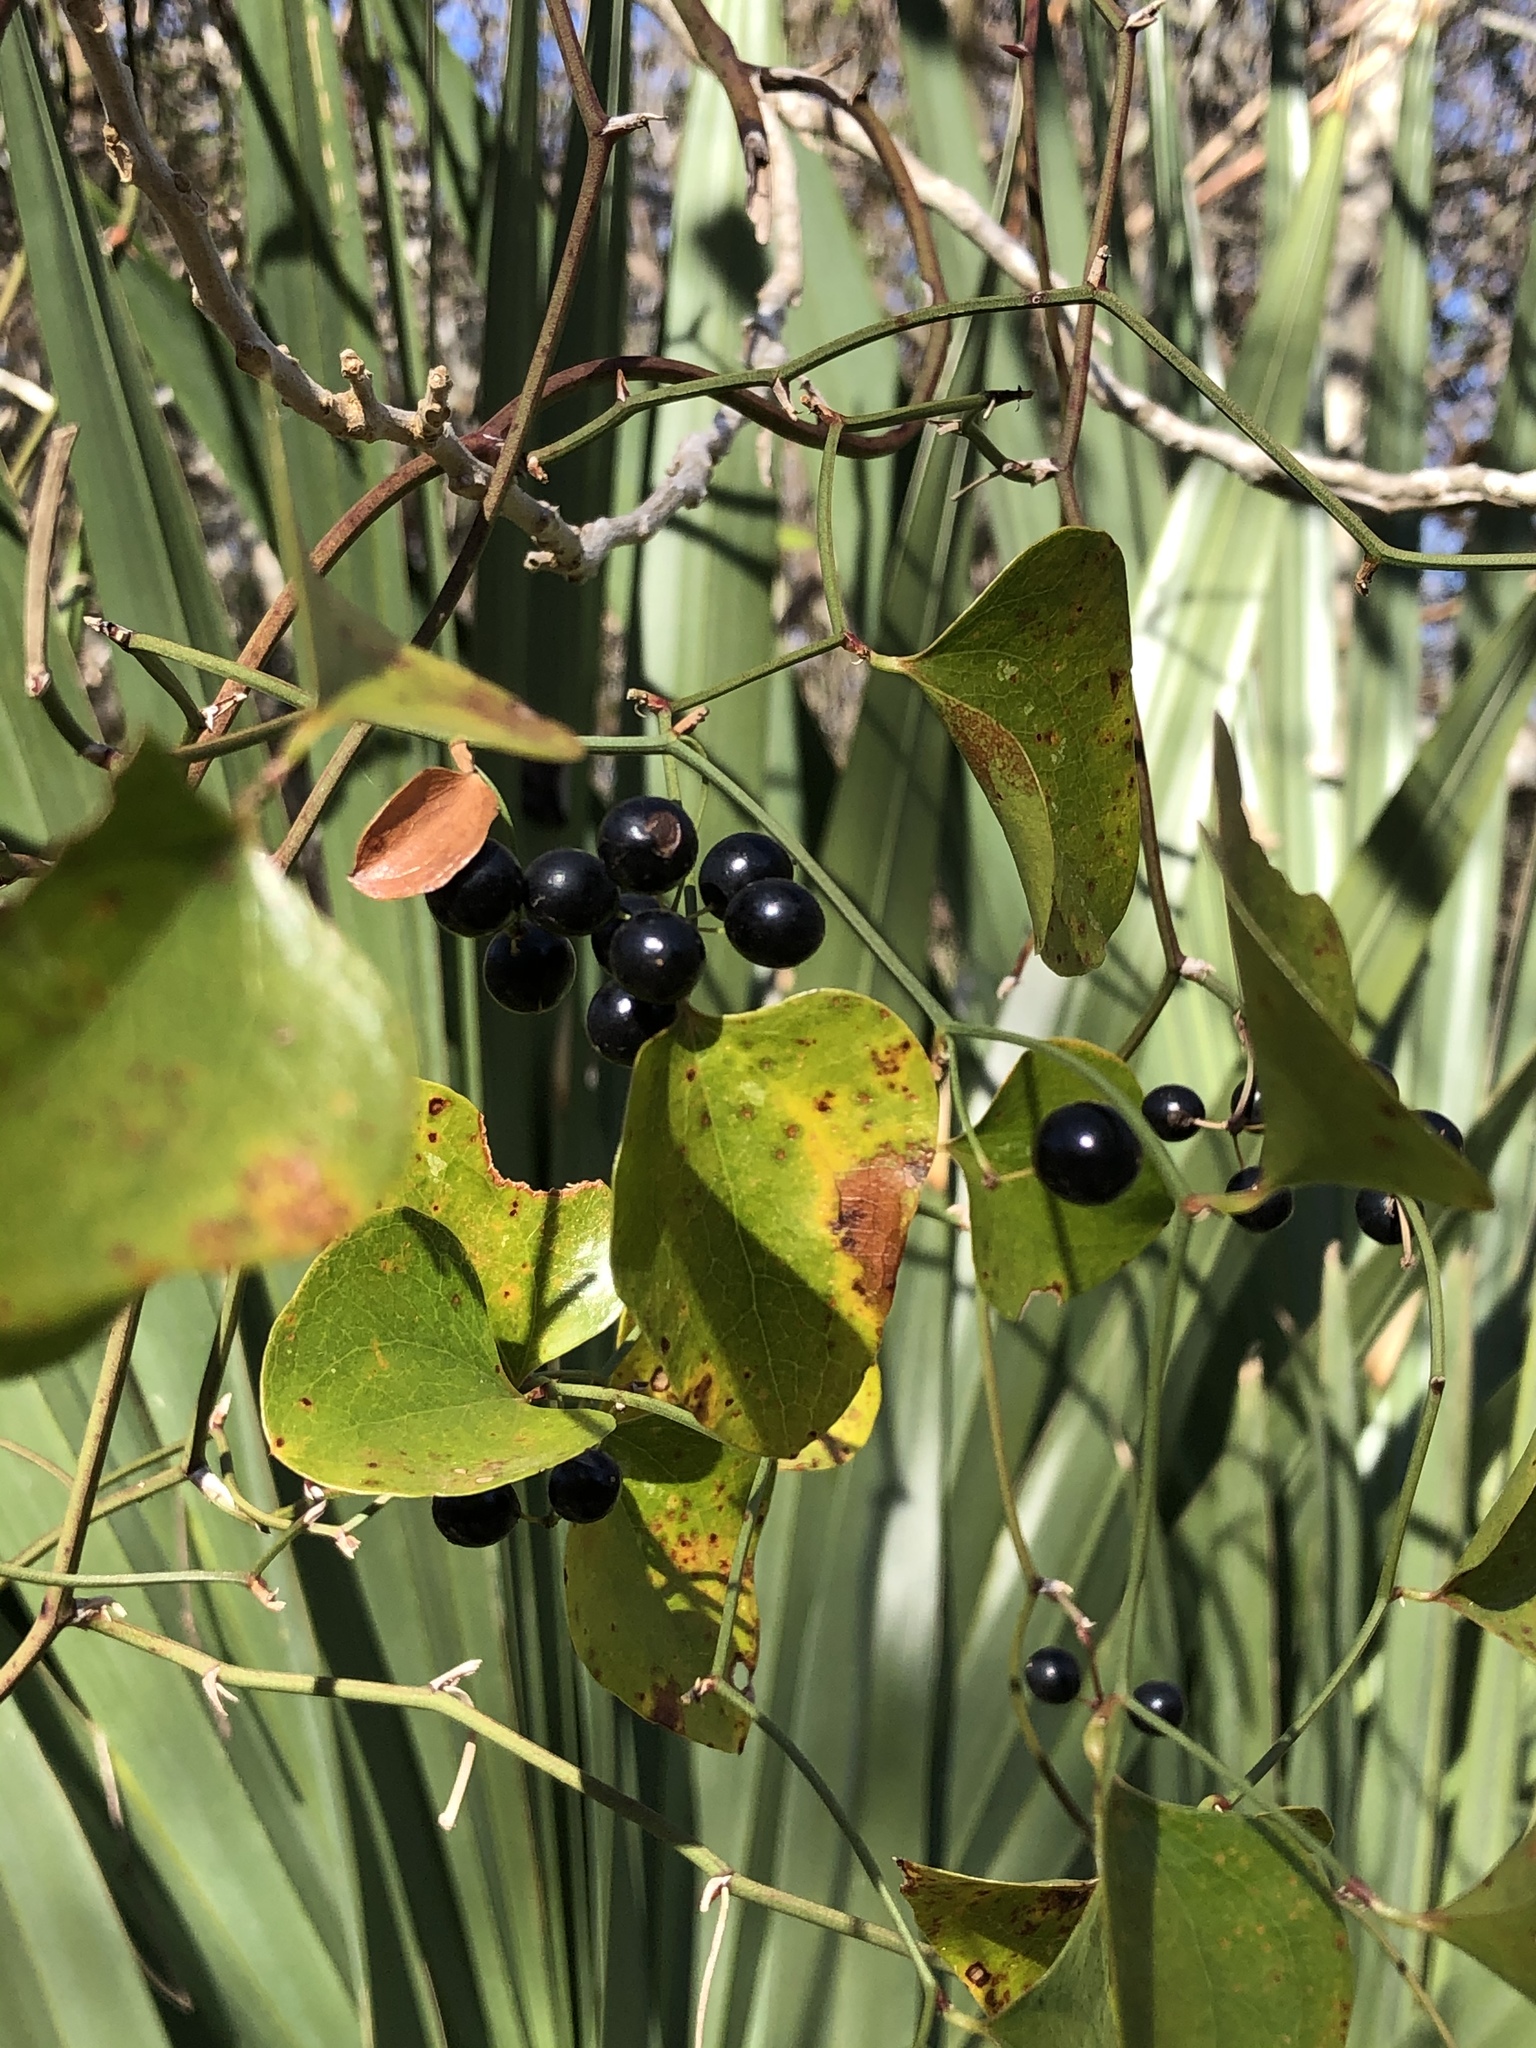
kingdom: Plantae
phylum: Tracheophyta
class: Liliopsida
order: Liliales
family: Smilacaceae
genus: Smilax
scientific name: Smilax bona-nox
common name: Catbrier
